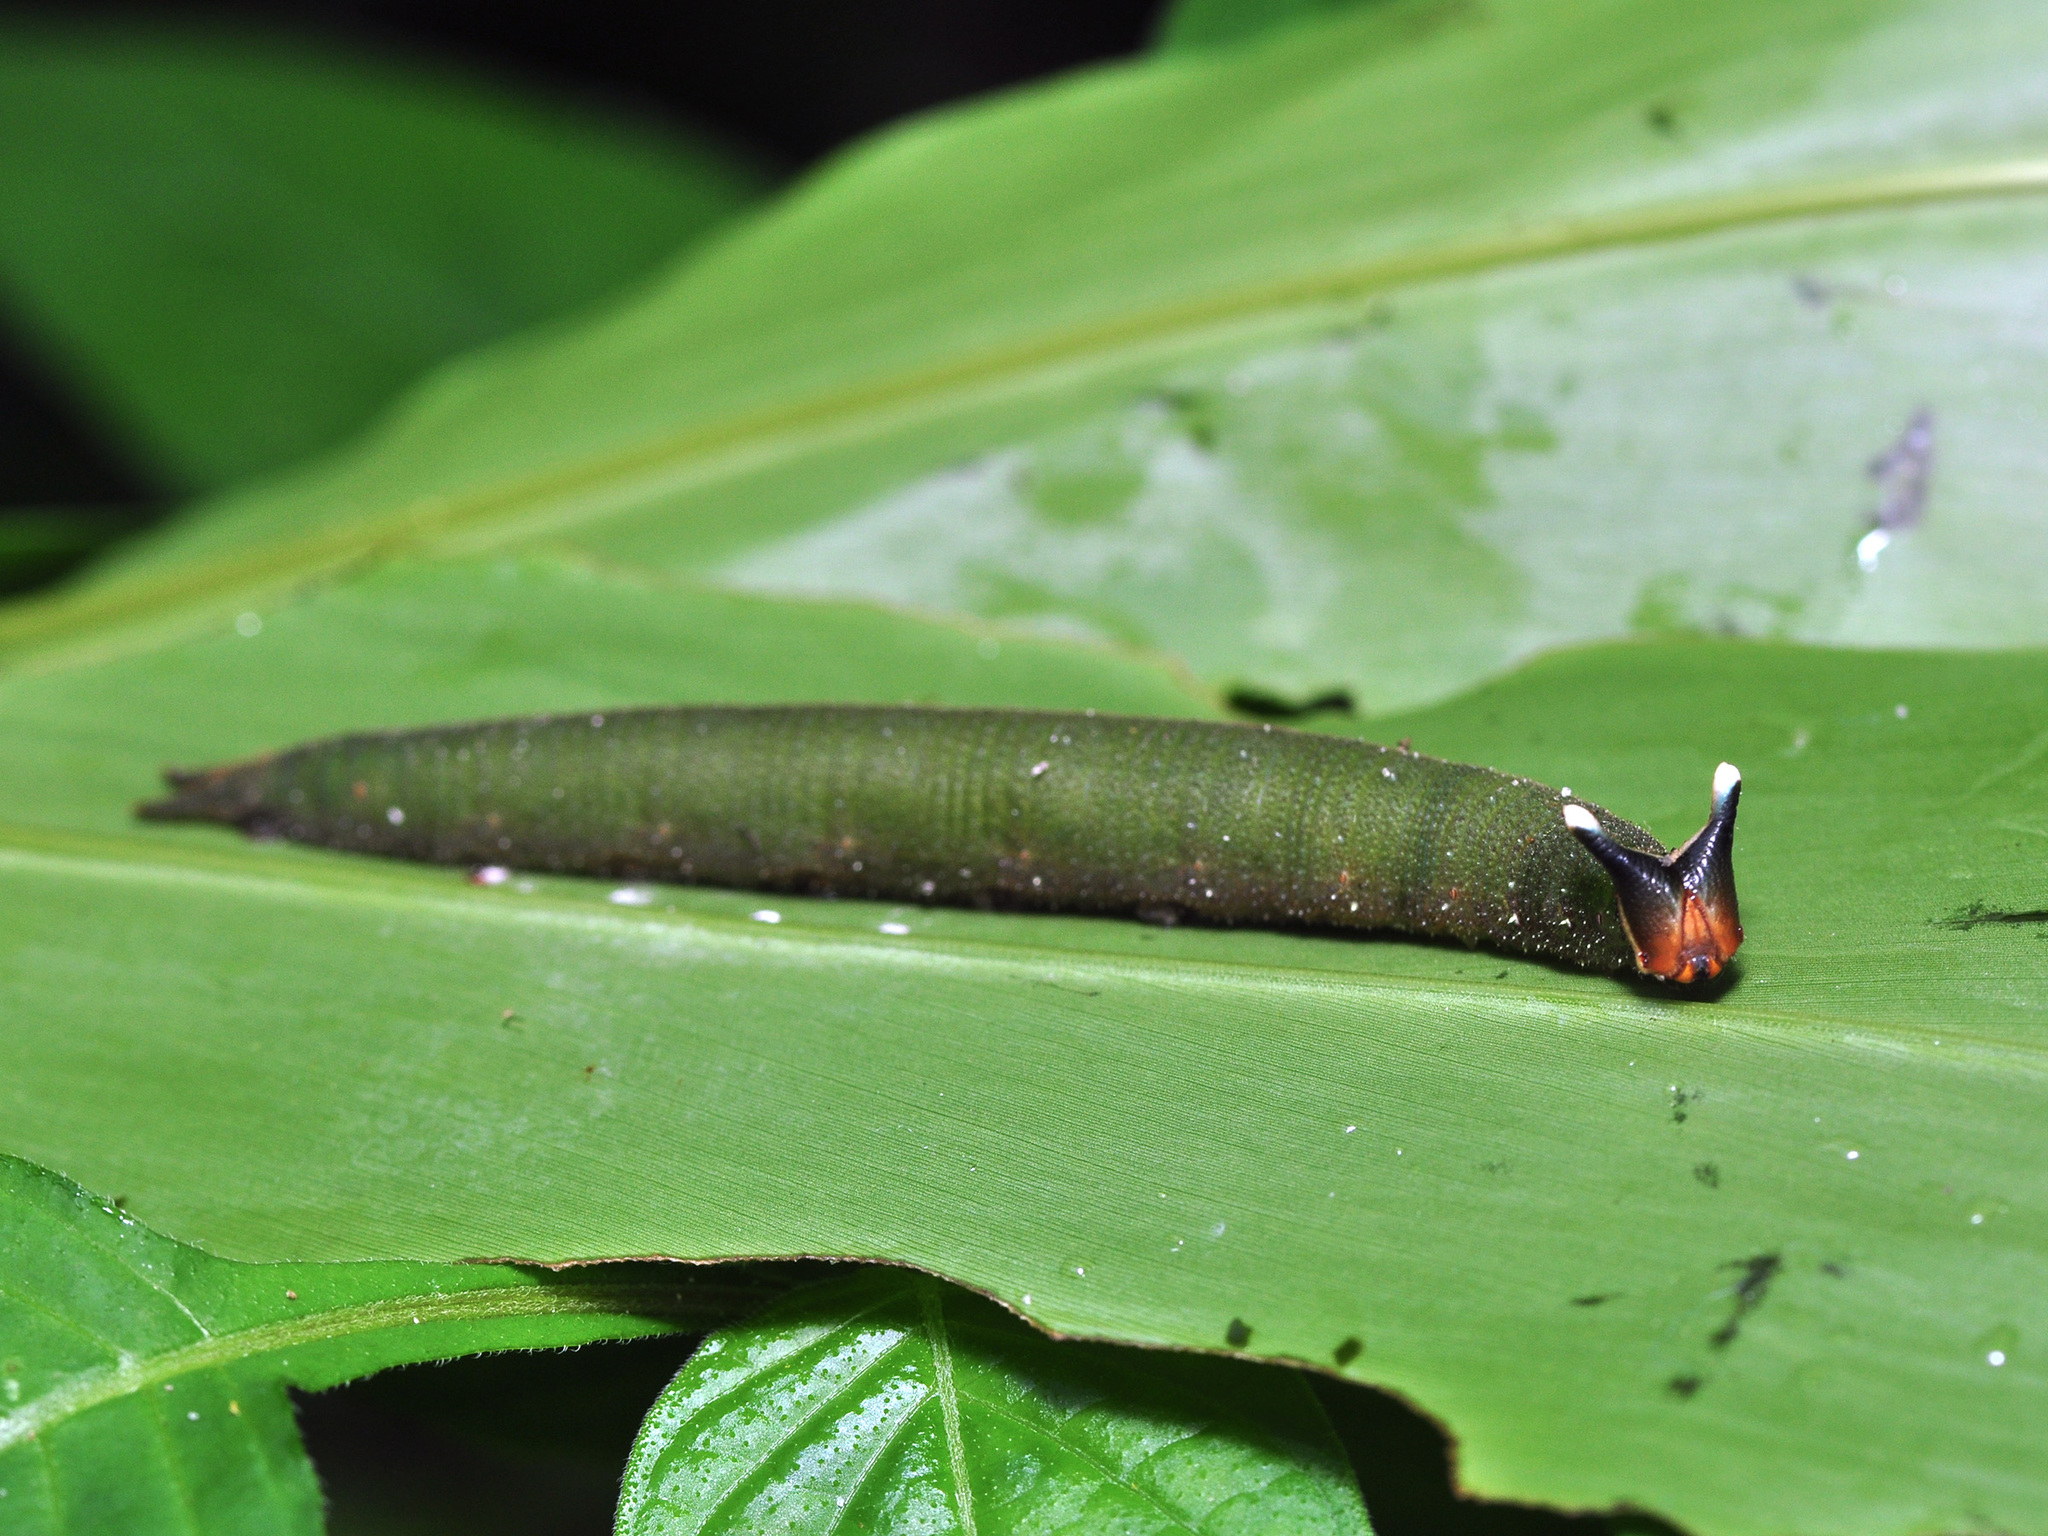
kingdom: Animalia
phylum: Arthropoda
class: Insecta
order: Lepidoptera
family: Nymphalidae
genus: Xanthotaenia
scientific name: Xanthotaenia busiris
